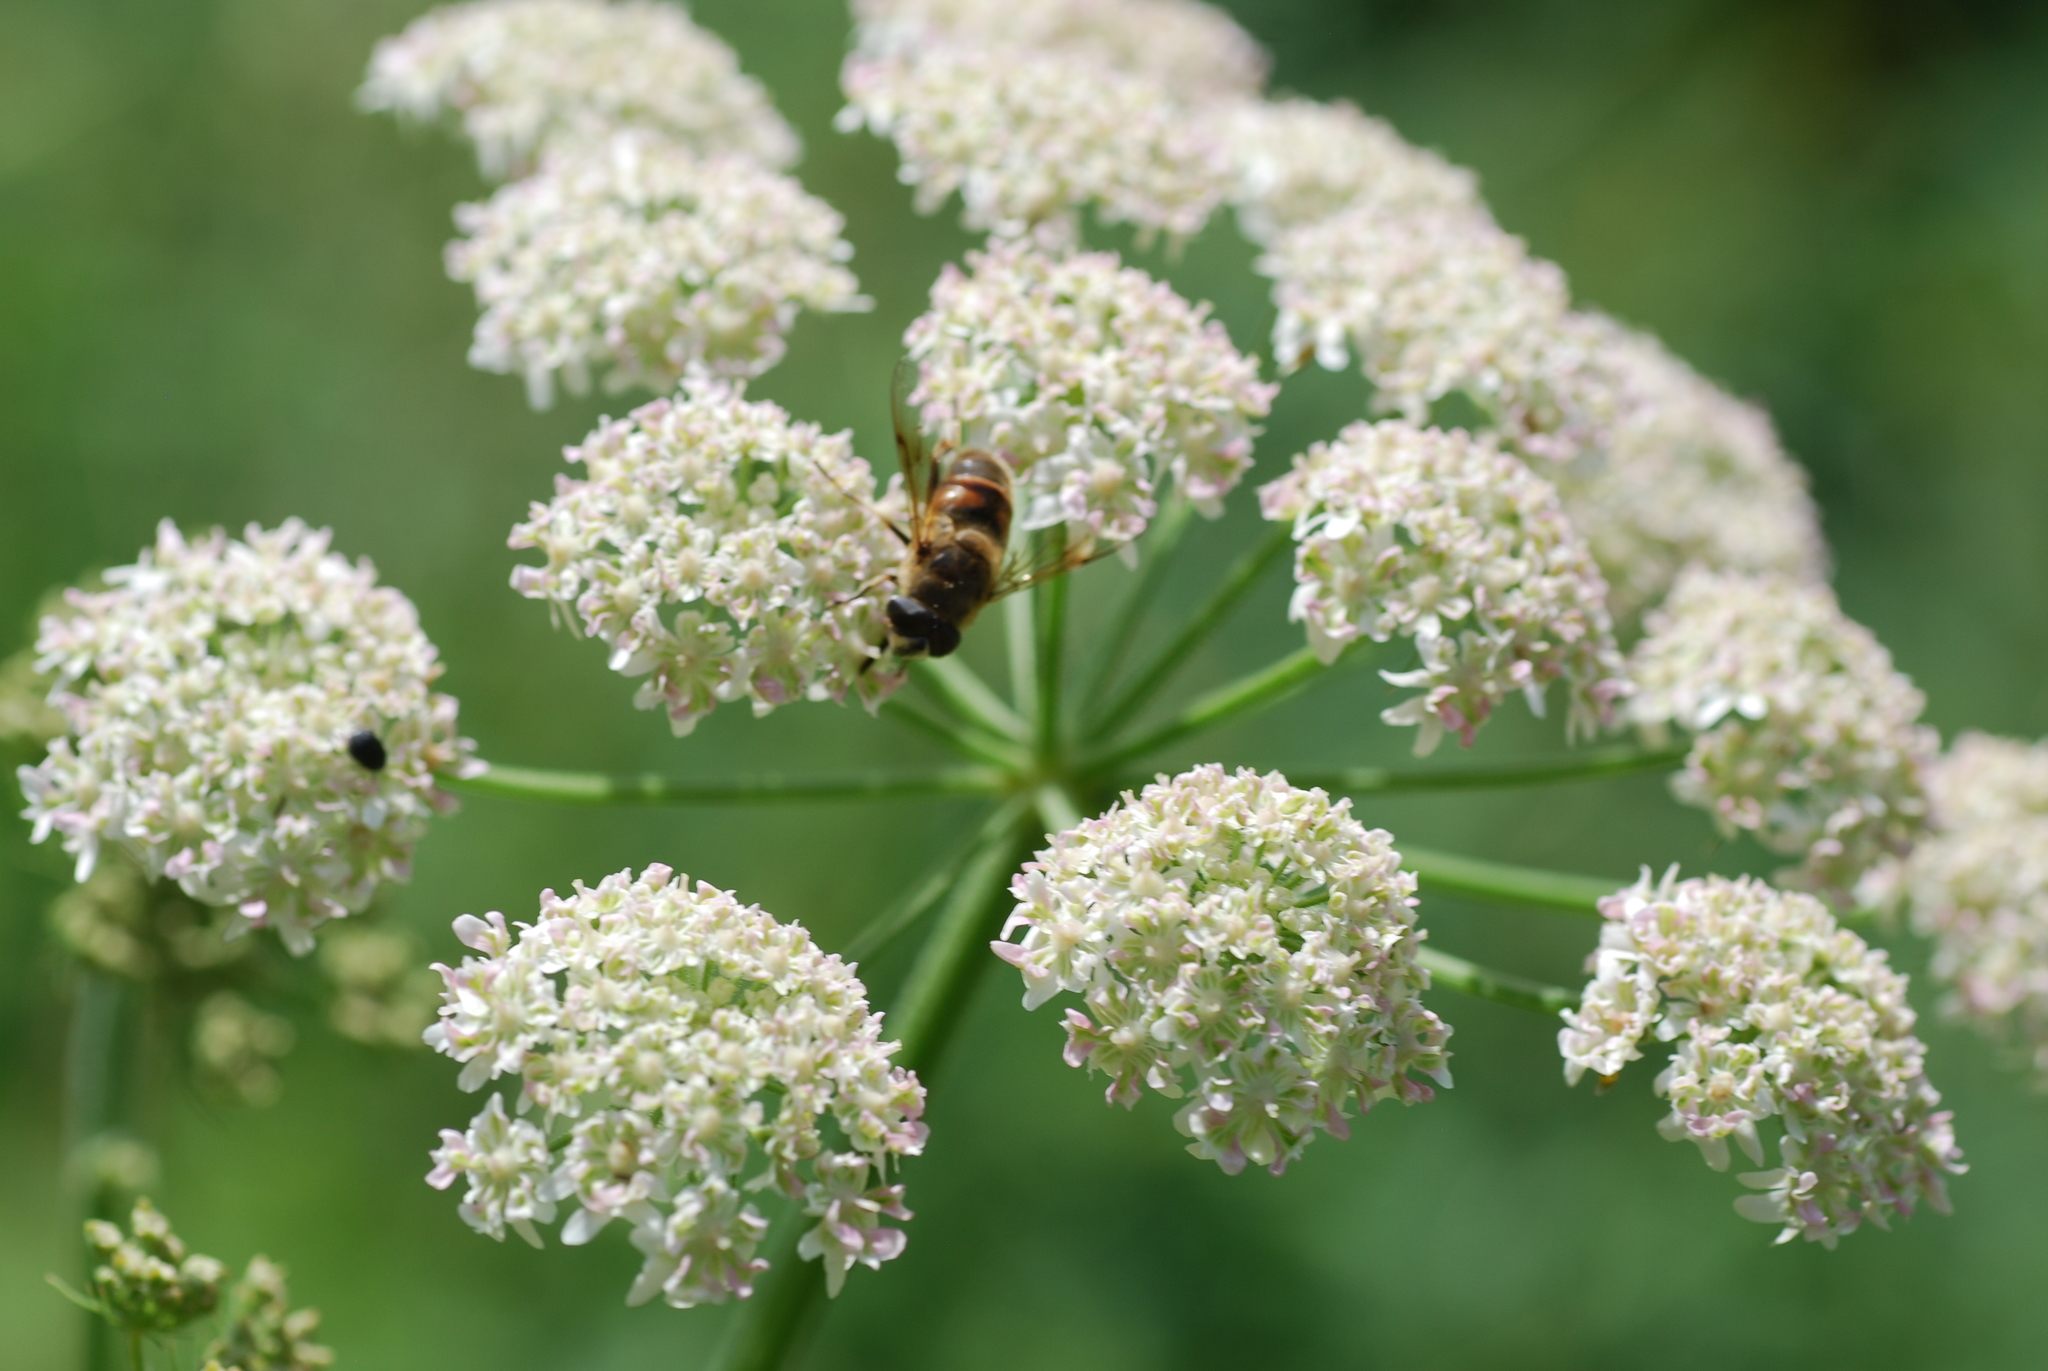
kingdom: Animalia
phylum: Arthropoda
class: Insecta
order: Diptera
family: Syrphidae
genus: Eristalis
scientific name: Eristalis tenax
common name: Drone fly
